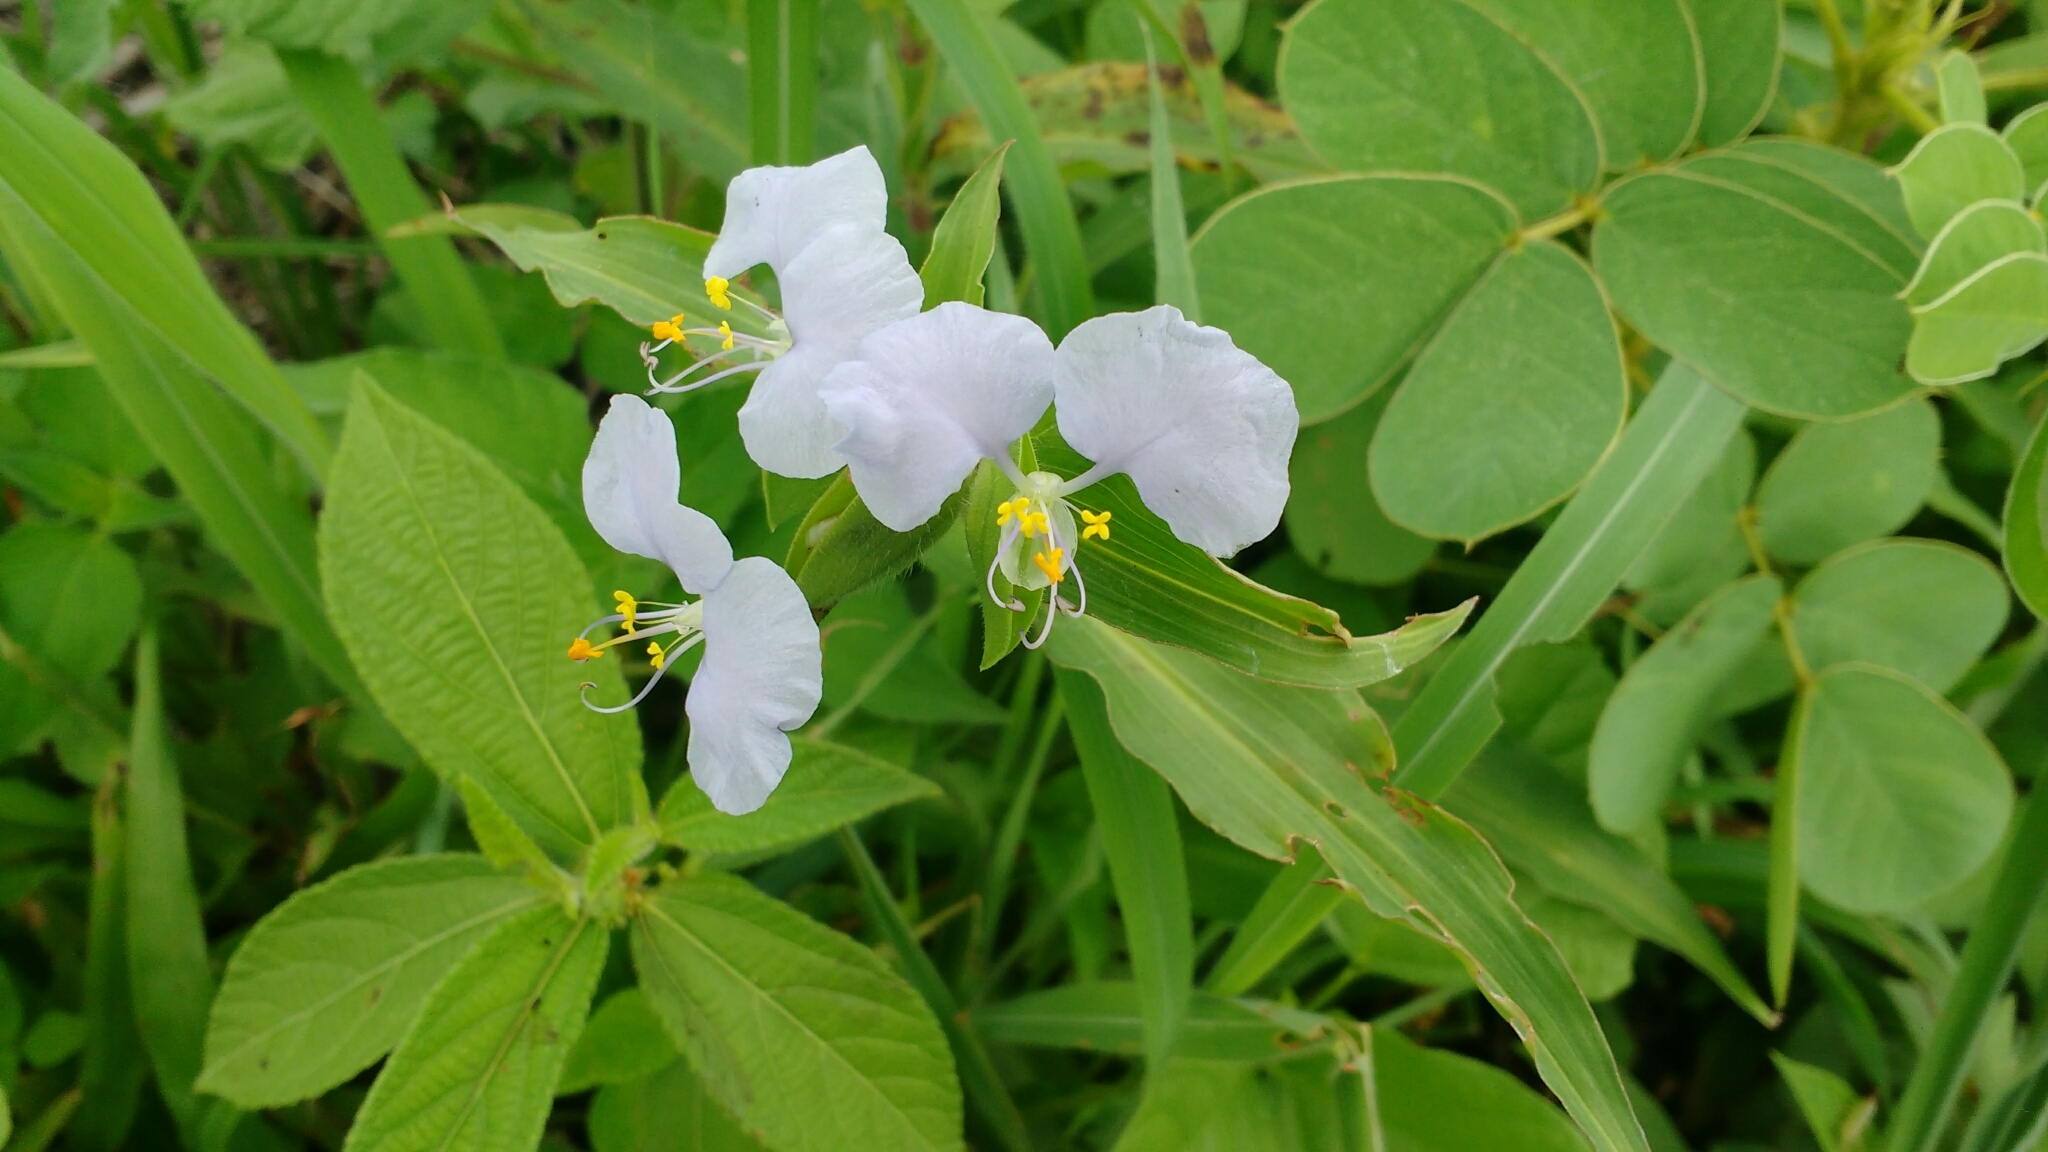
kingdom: Plantae
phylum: Tracheophyta
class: Liliopsida
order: Commelinales
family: Commelinaceae
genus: Commelina
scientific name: Commelina erecta
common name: Blousel blommetjie
